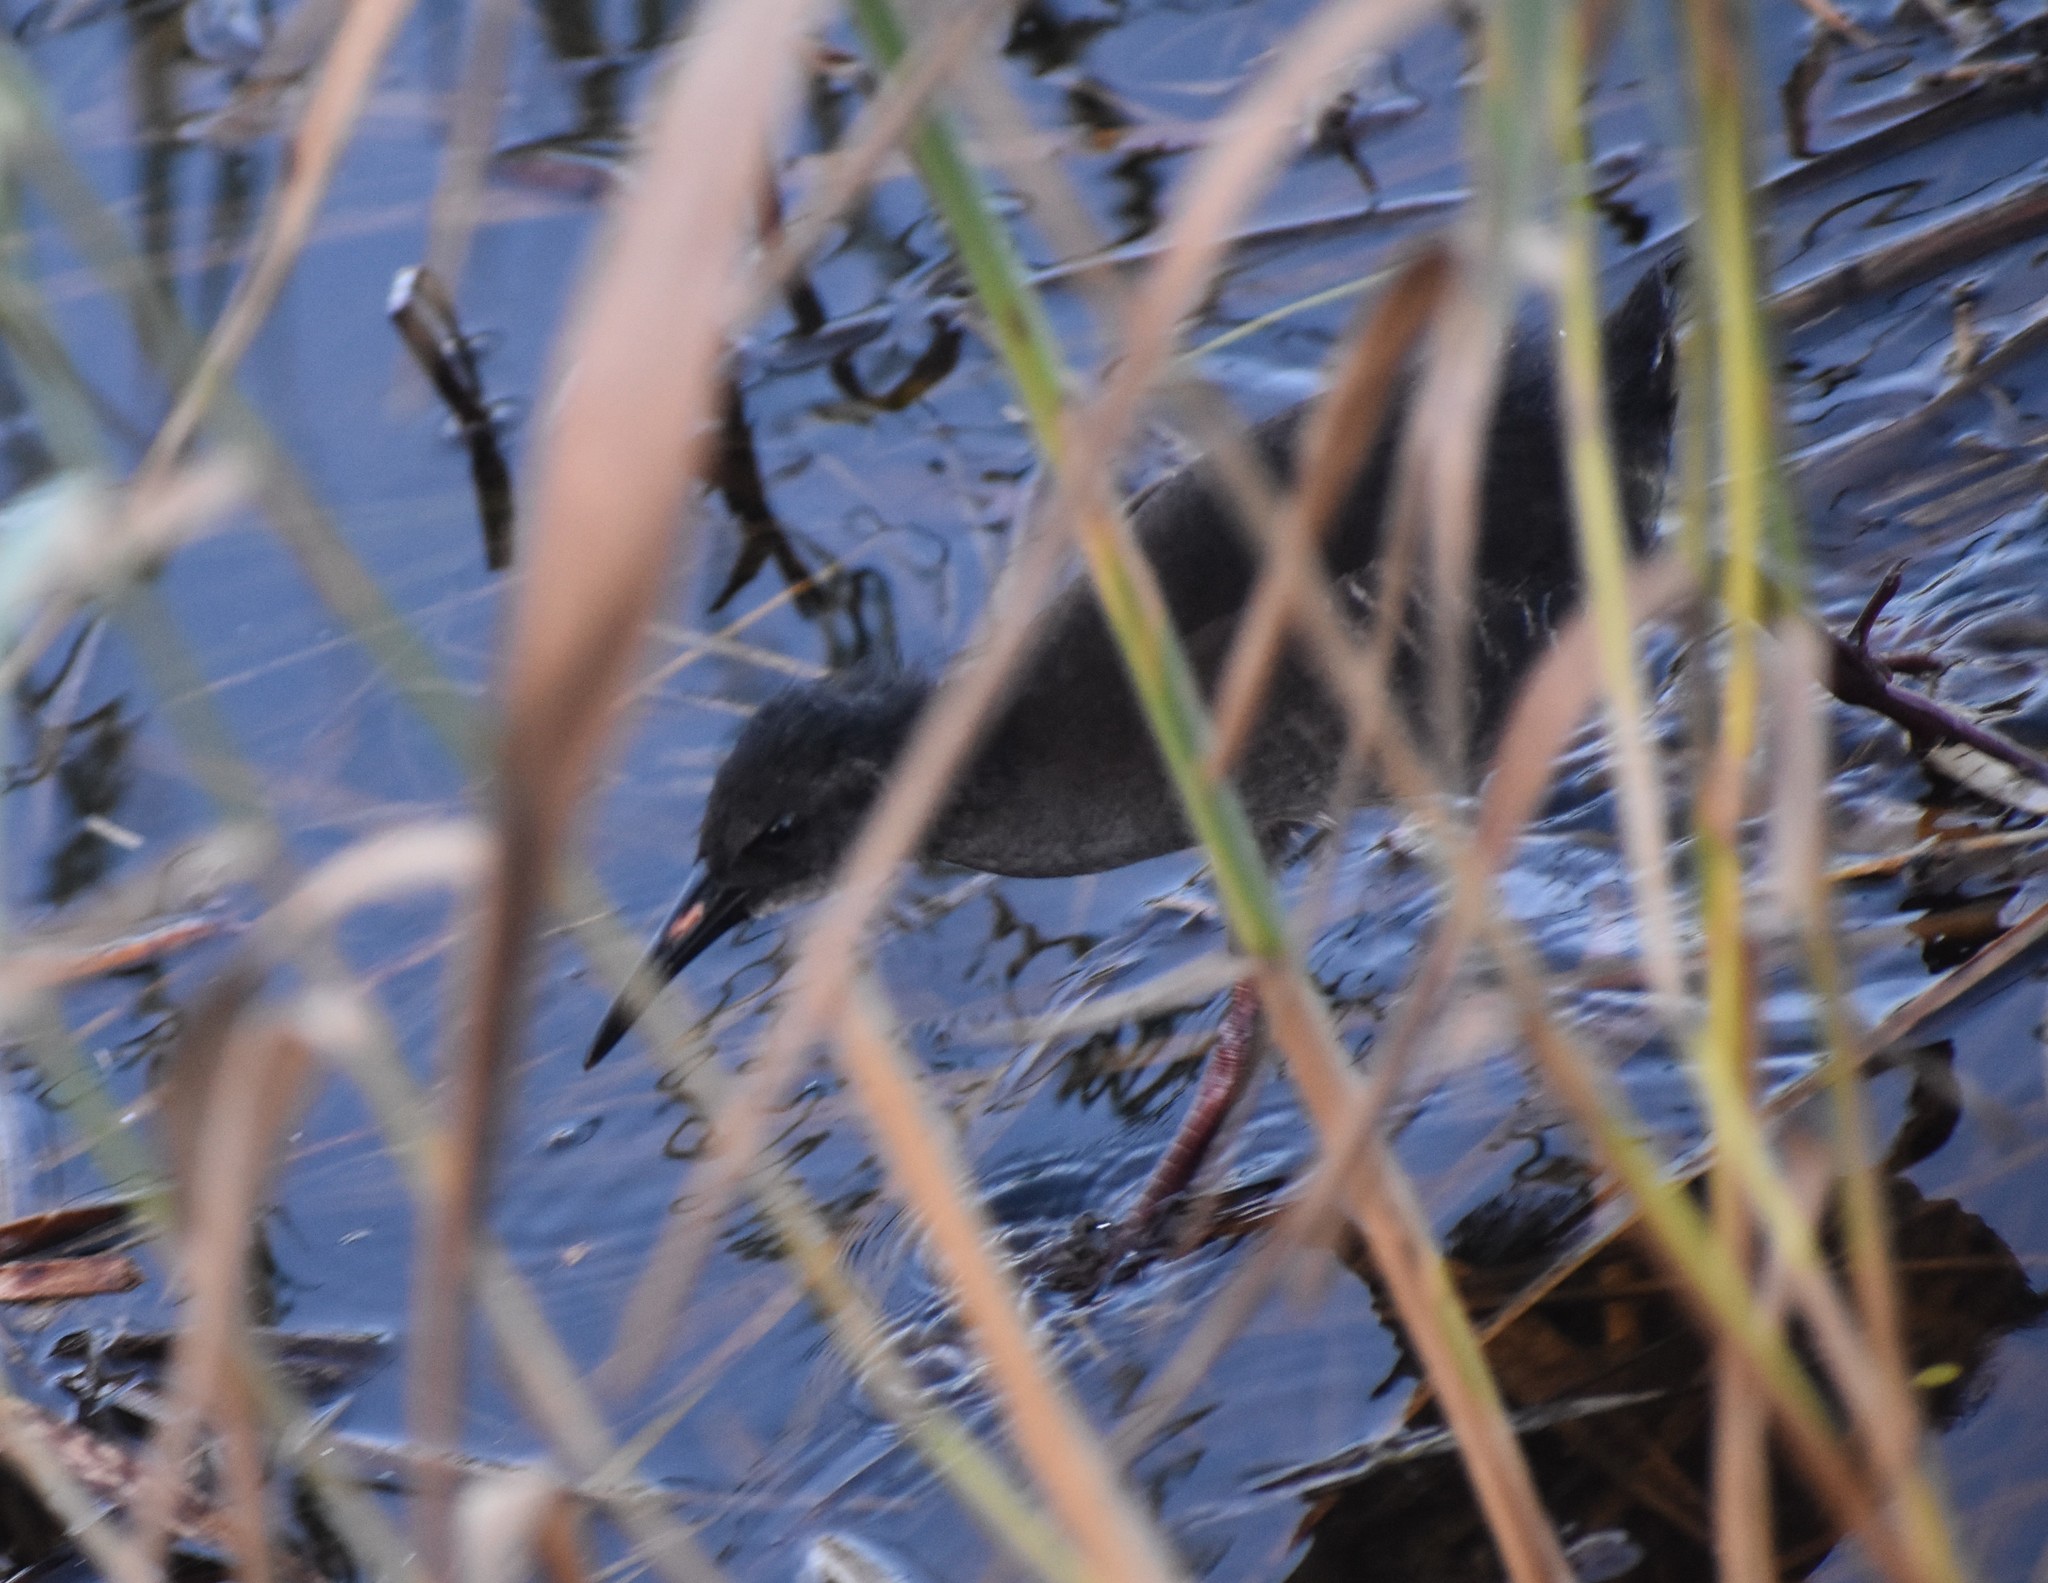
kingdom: Animalia
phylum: Chordata
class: Aves
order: Gruiformes
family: Rallidae
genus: Rallus
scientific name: Rallus caerulescens
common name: African rail
